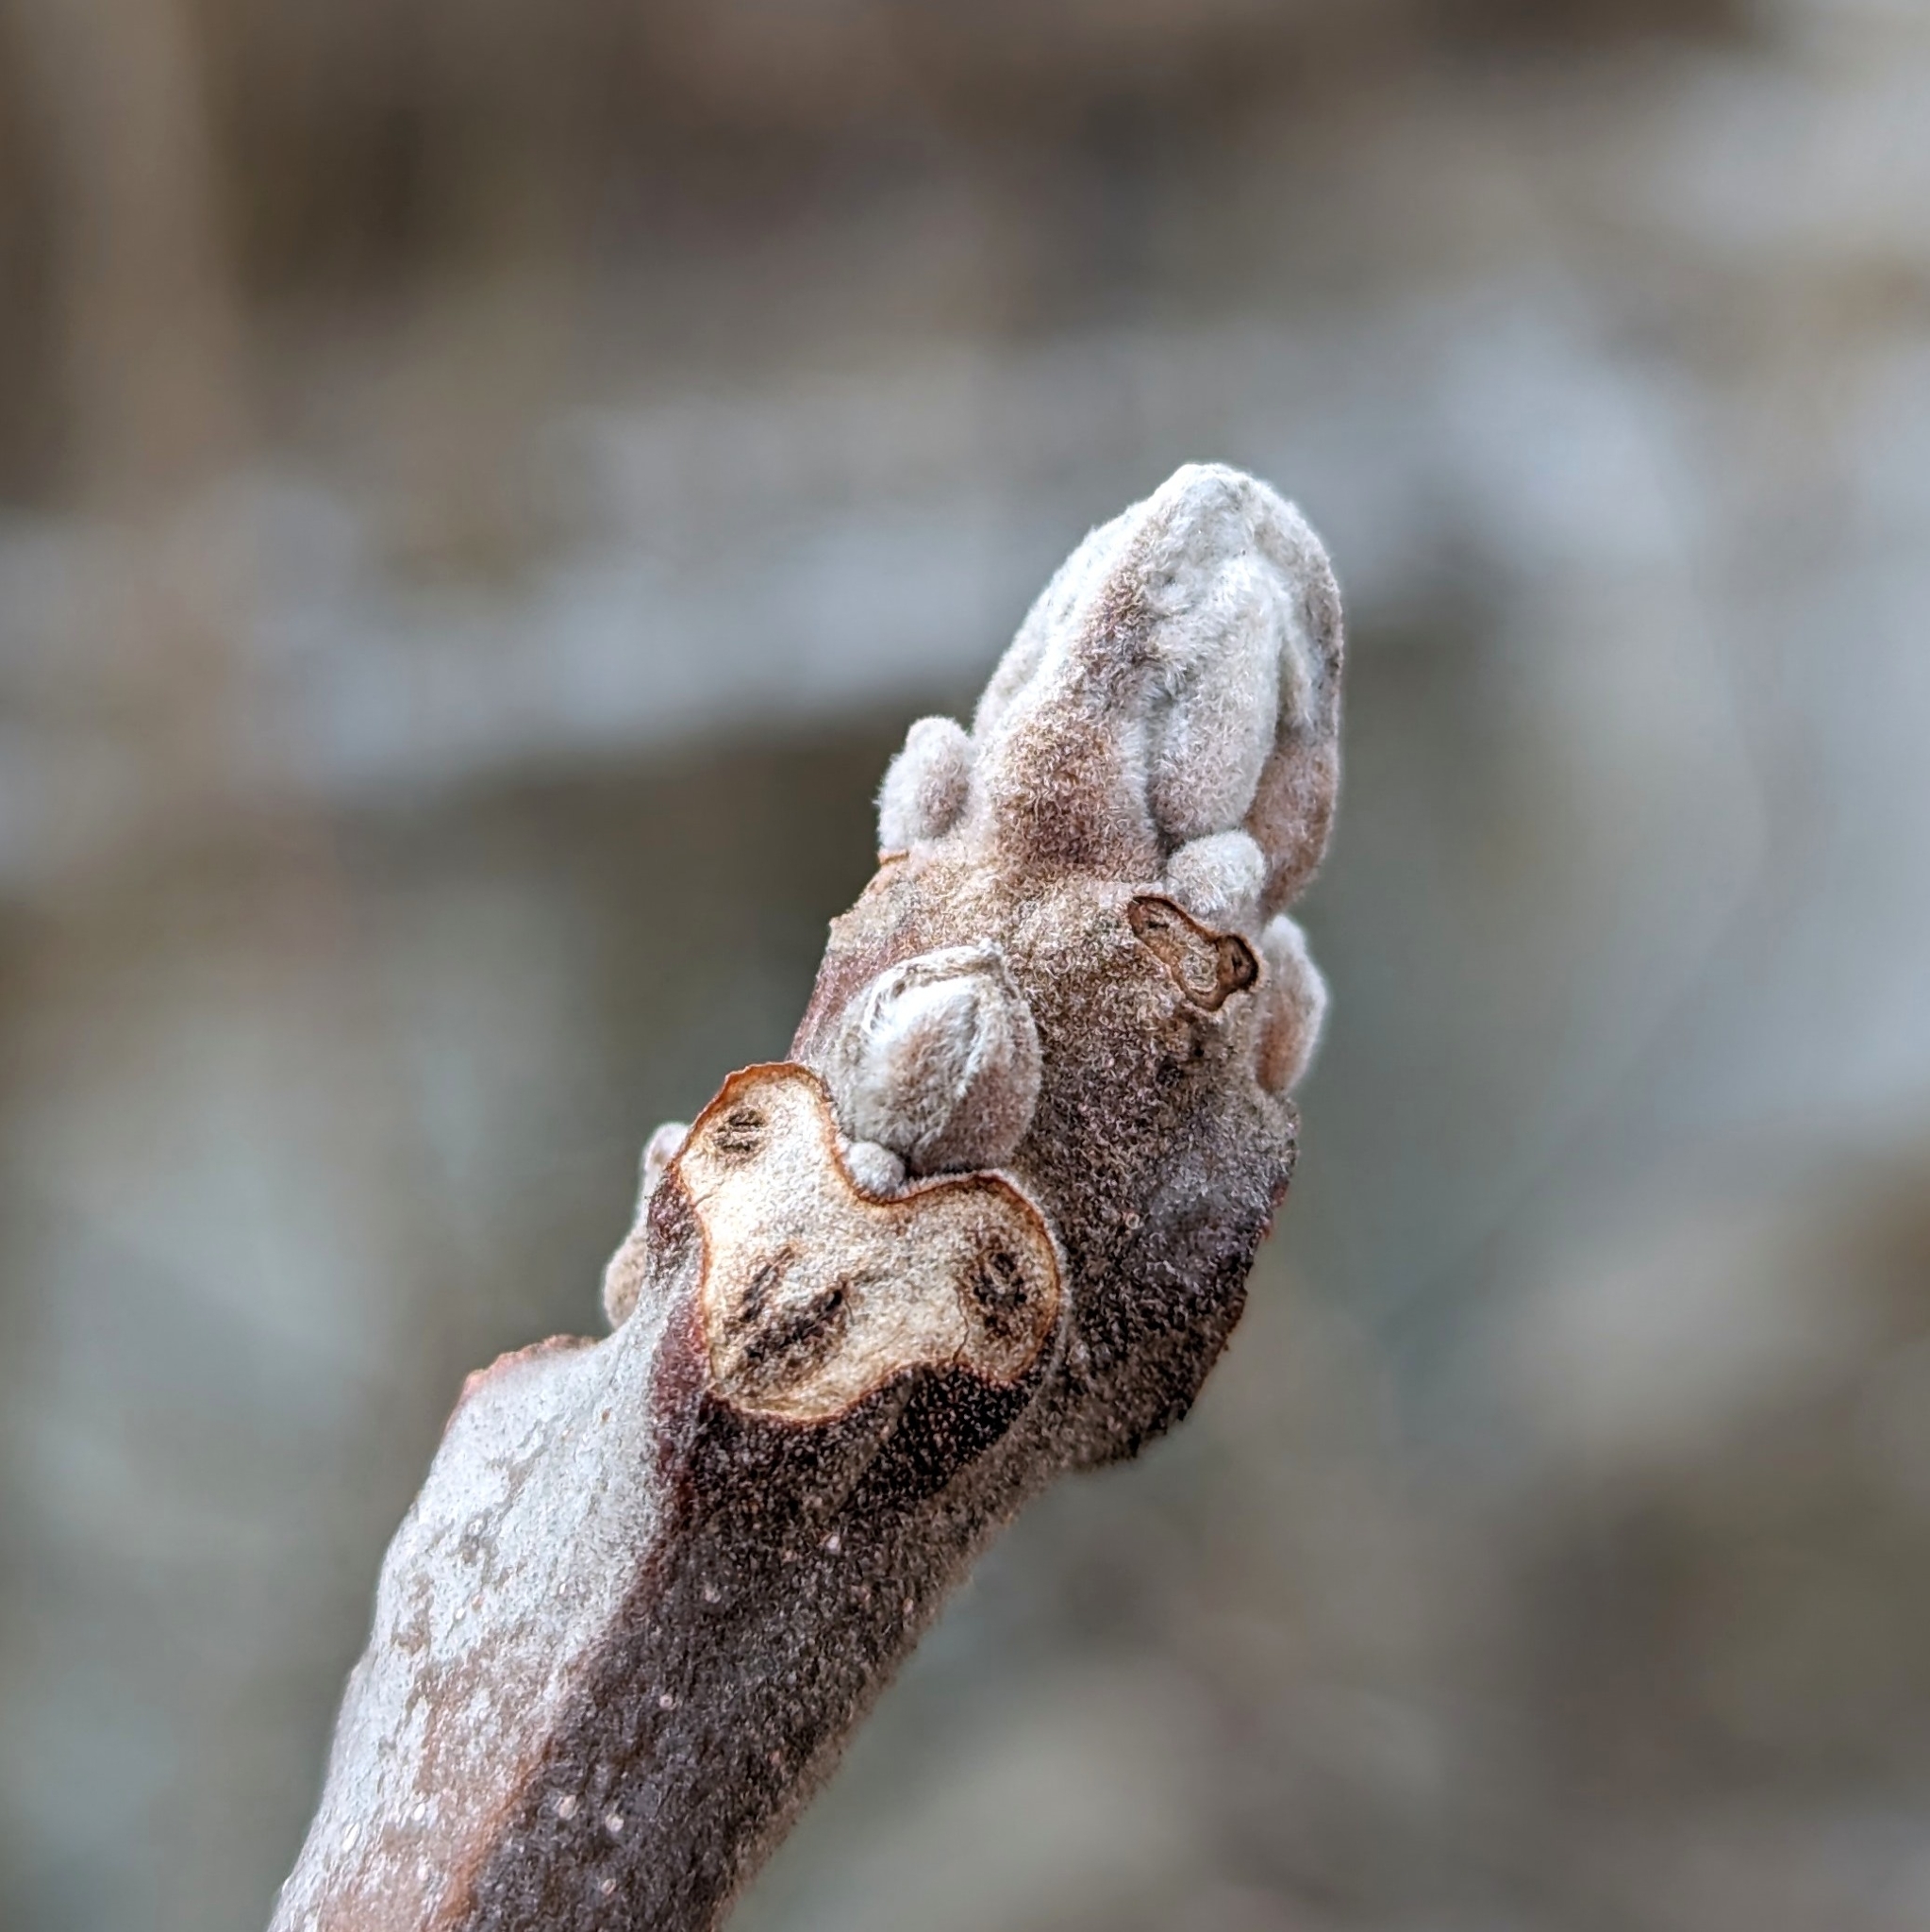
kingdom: Plantae
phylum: Tracheophyta
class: Magnoliopsida
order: Fagales
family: Juglandaceae
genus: Juglans
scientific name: Juglans nigra
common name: Black walnut
